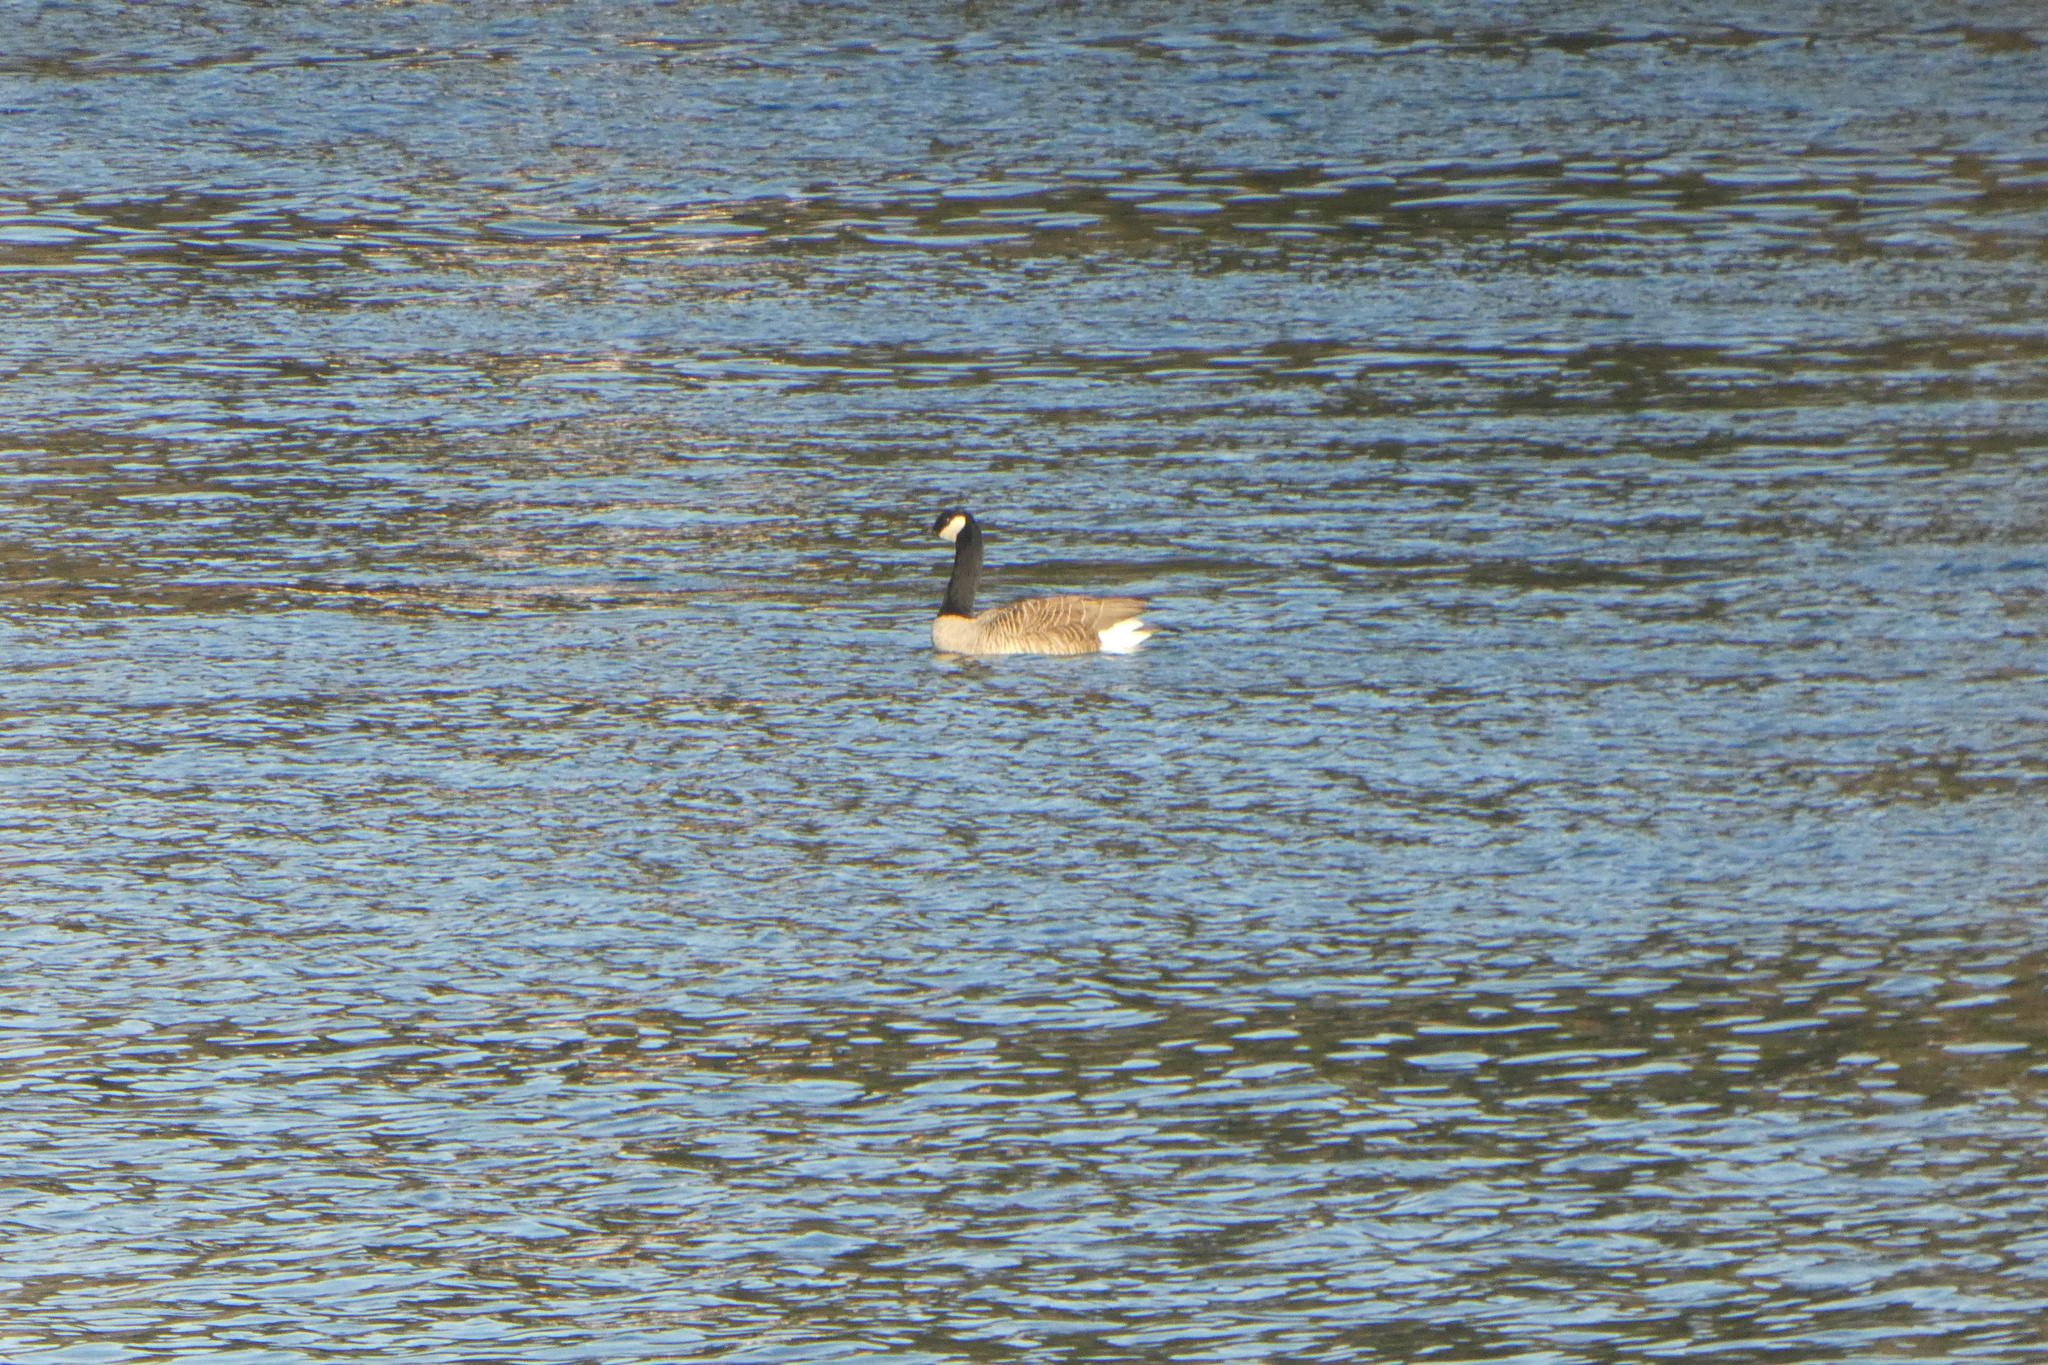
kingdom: Animalia
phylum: Chordata
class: Aves
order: Anseriformes
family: Anatidae
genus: Branta
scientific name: Branta canadensis
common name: Canada goose
